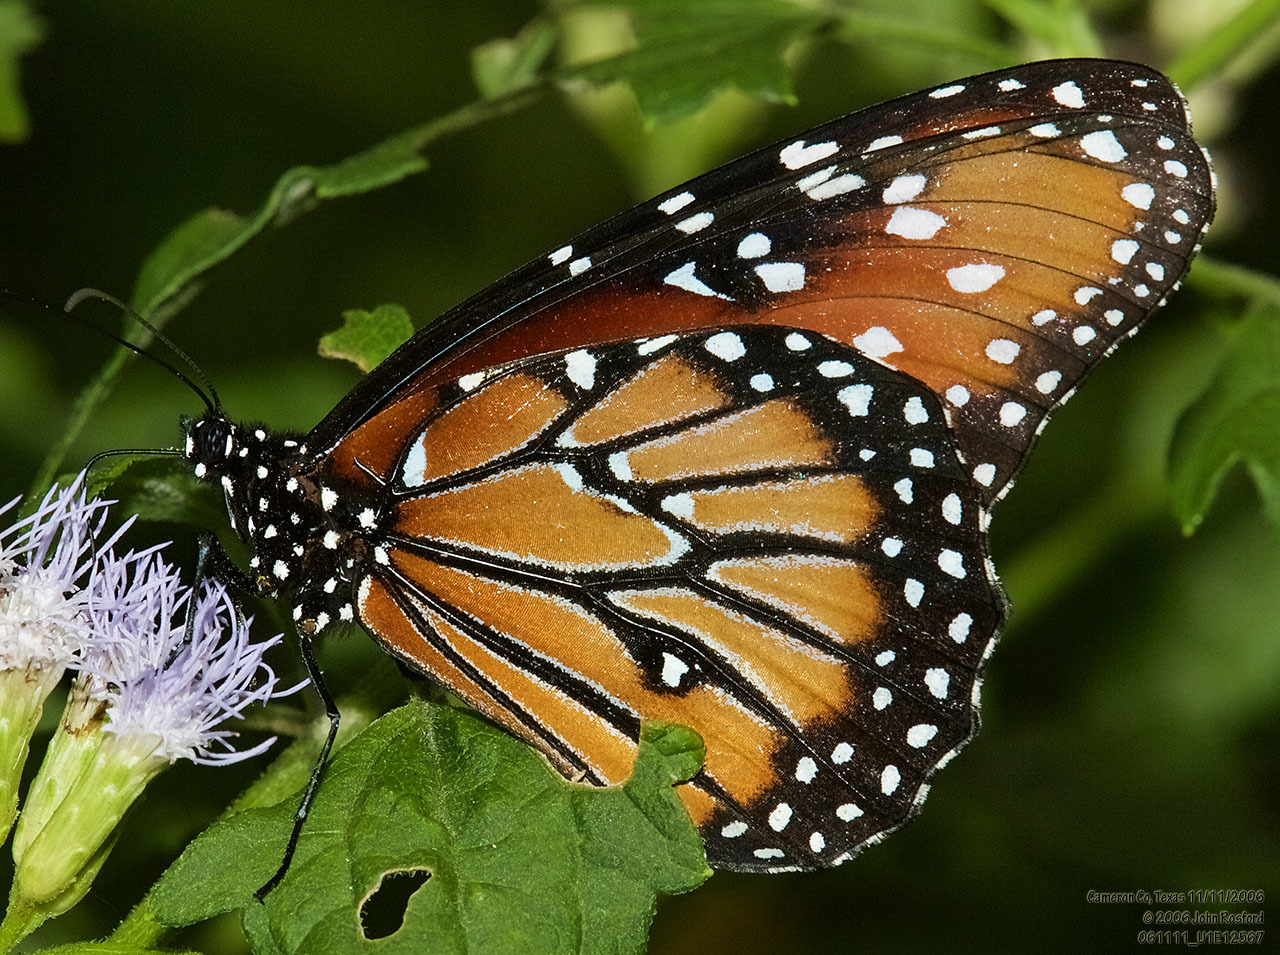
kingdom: Animalia
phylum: Arthropoda
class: Insecta
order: Lepidoptera
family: Nymphalidae
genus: Danaus
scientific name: Danaus gilippus
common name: Queen
